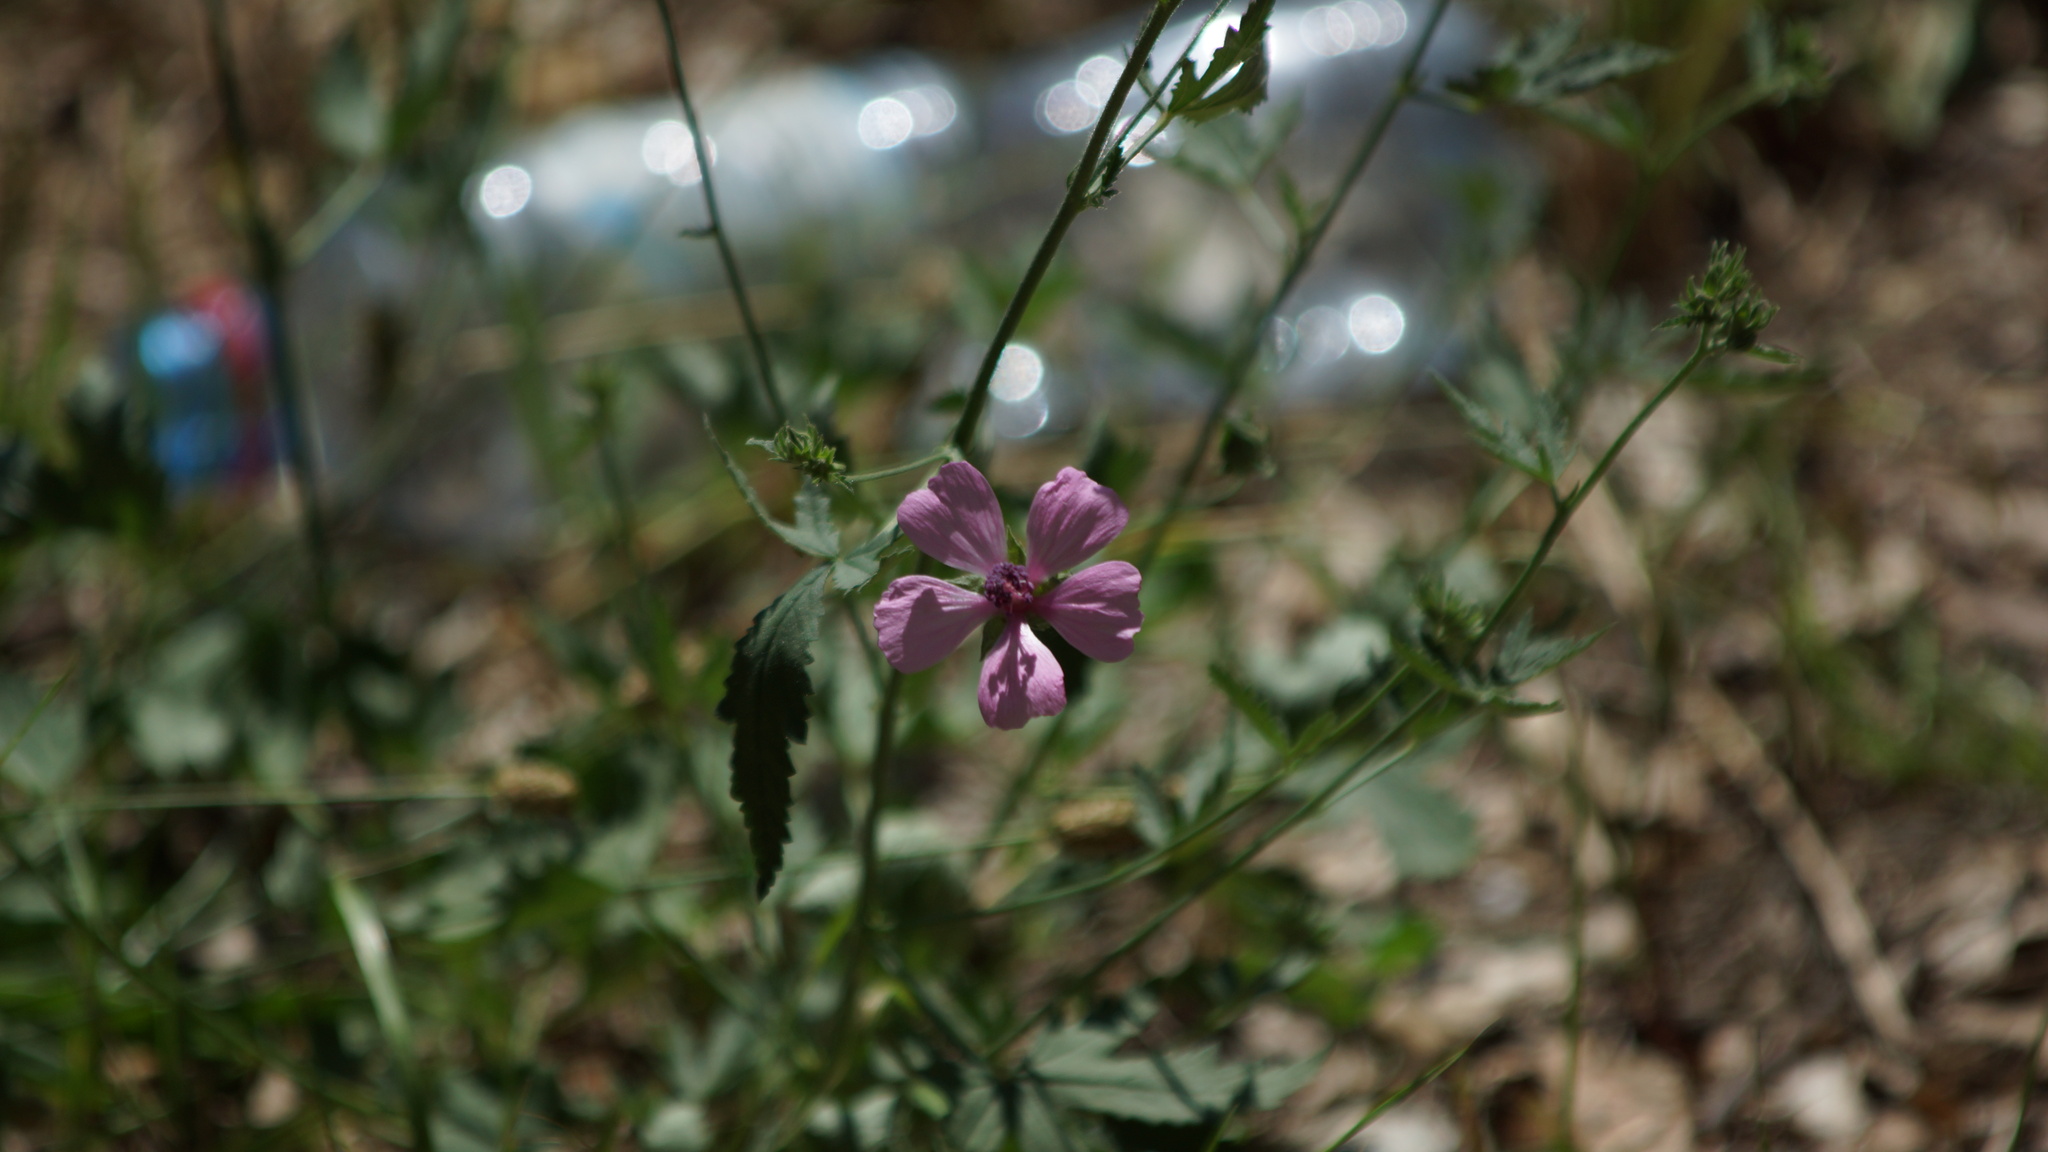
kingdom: Plantae
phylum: Tracheophyta
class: Magnoliopsida
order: Malvales
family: Malvaceae
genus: Althaea
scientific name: Althaea cannabina
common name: Palm-leaf marshmallow
